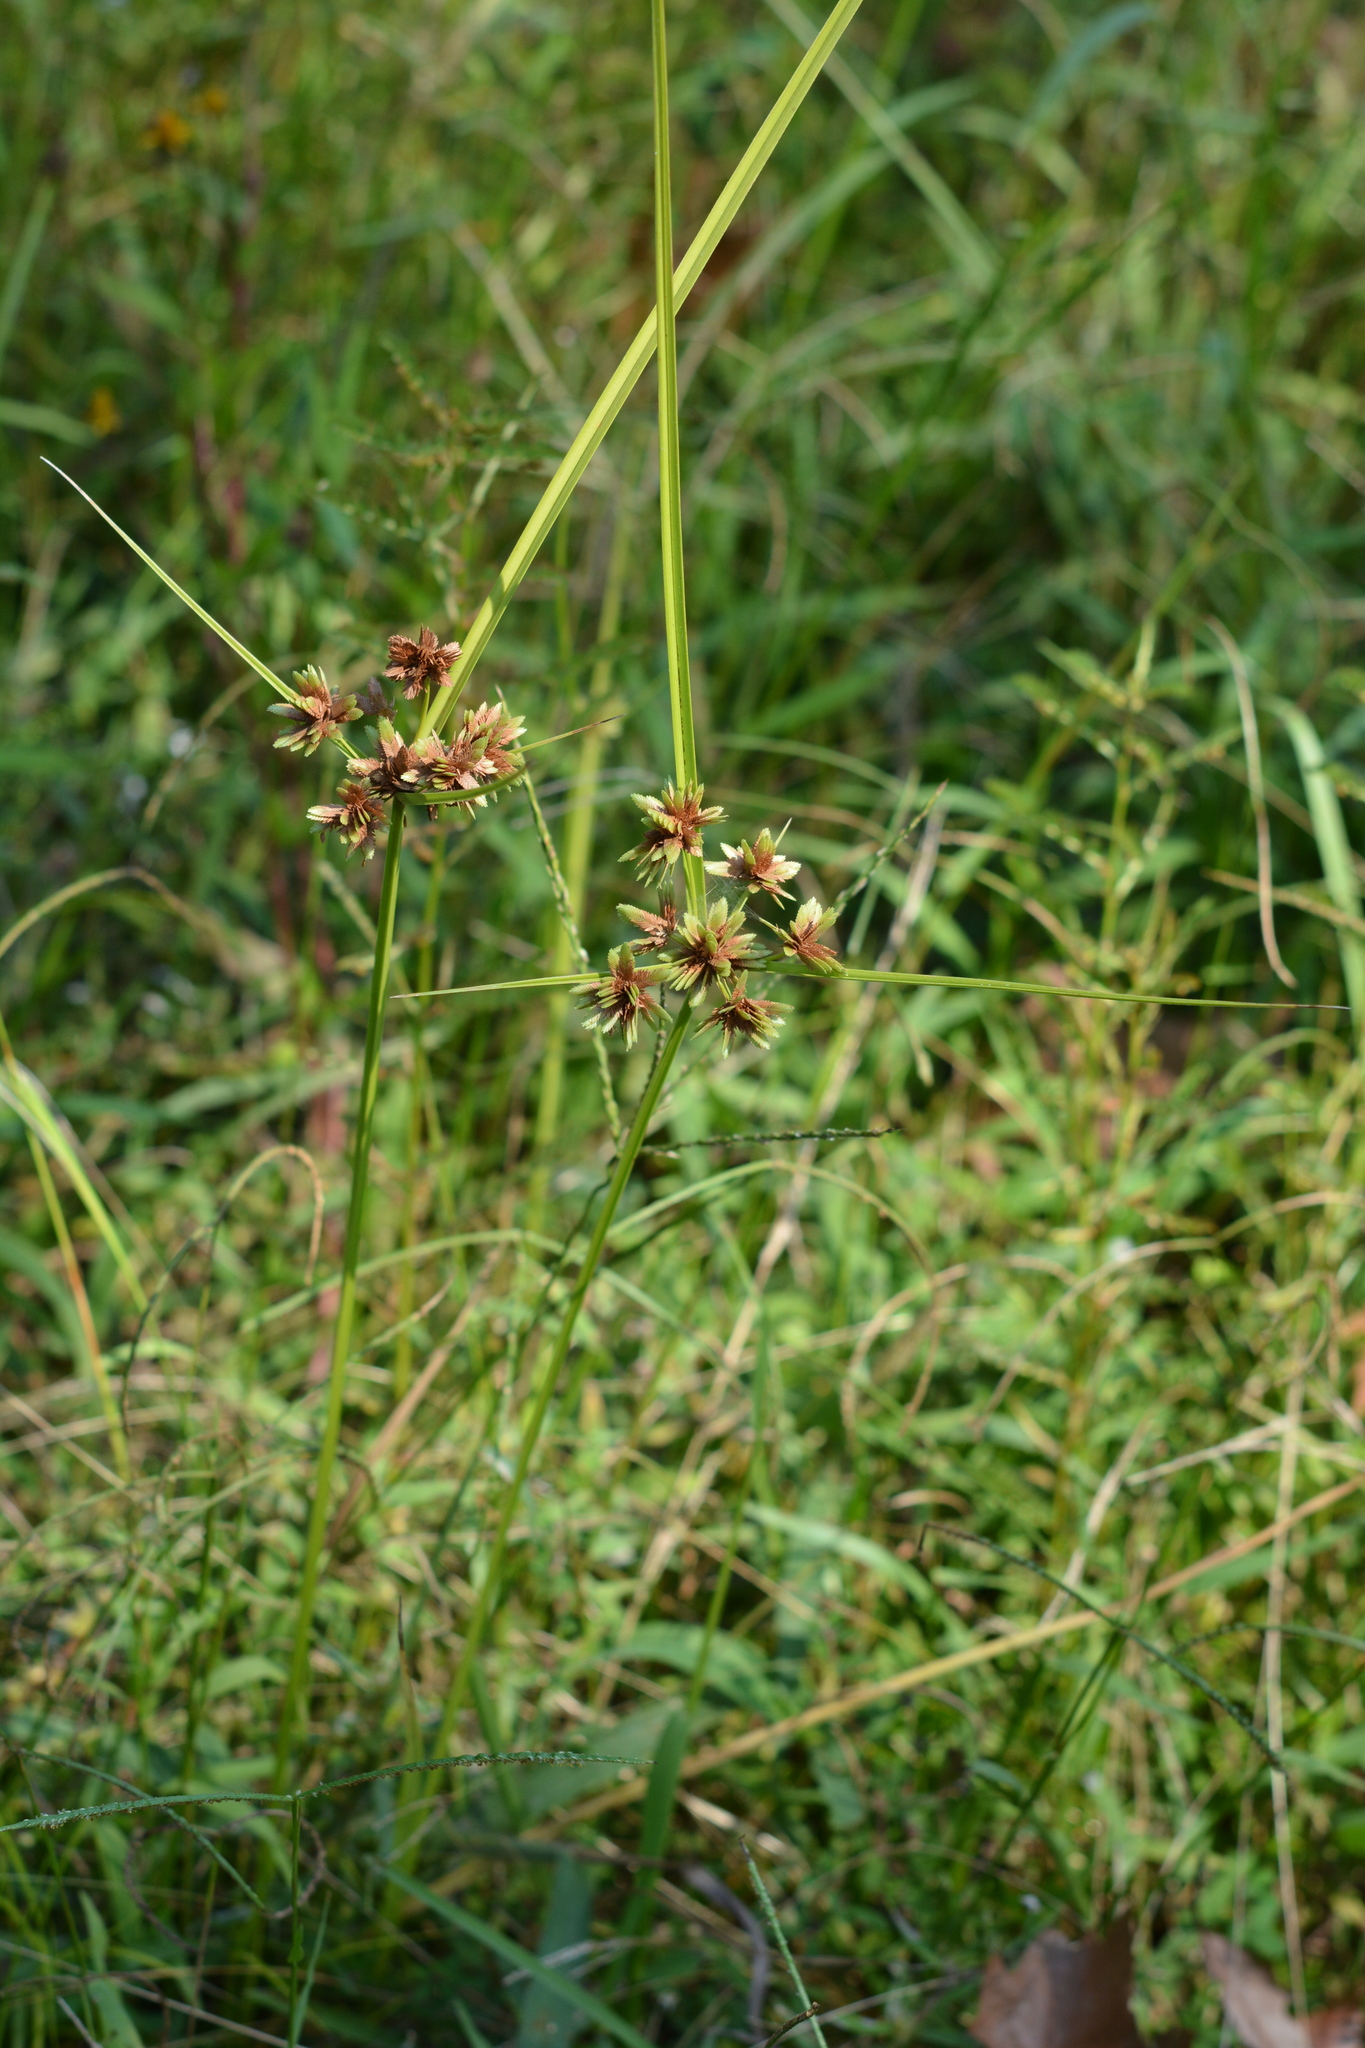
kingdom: Plantae
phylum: Tracheophyta
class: Liliopsida
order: Poales
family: Cyperaceae
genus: Cyperus
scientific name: Cyperus virens
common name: Green flatsedge
